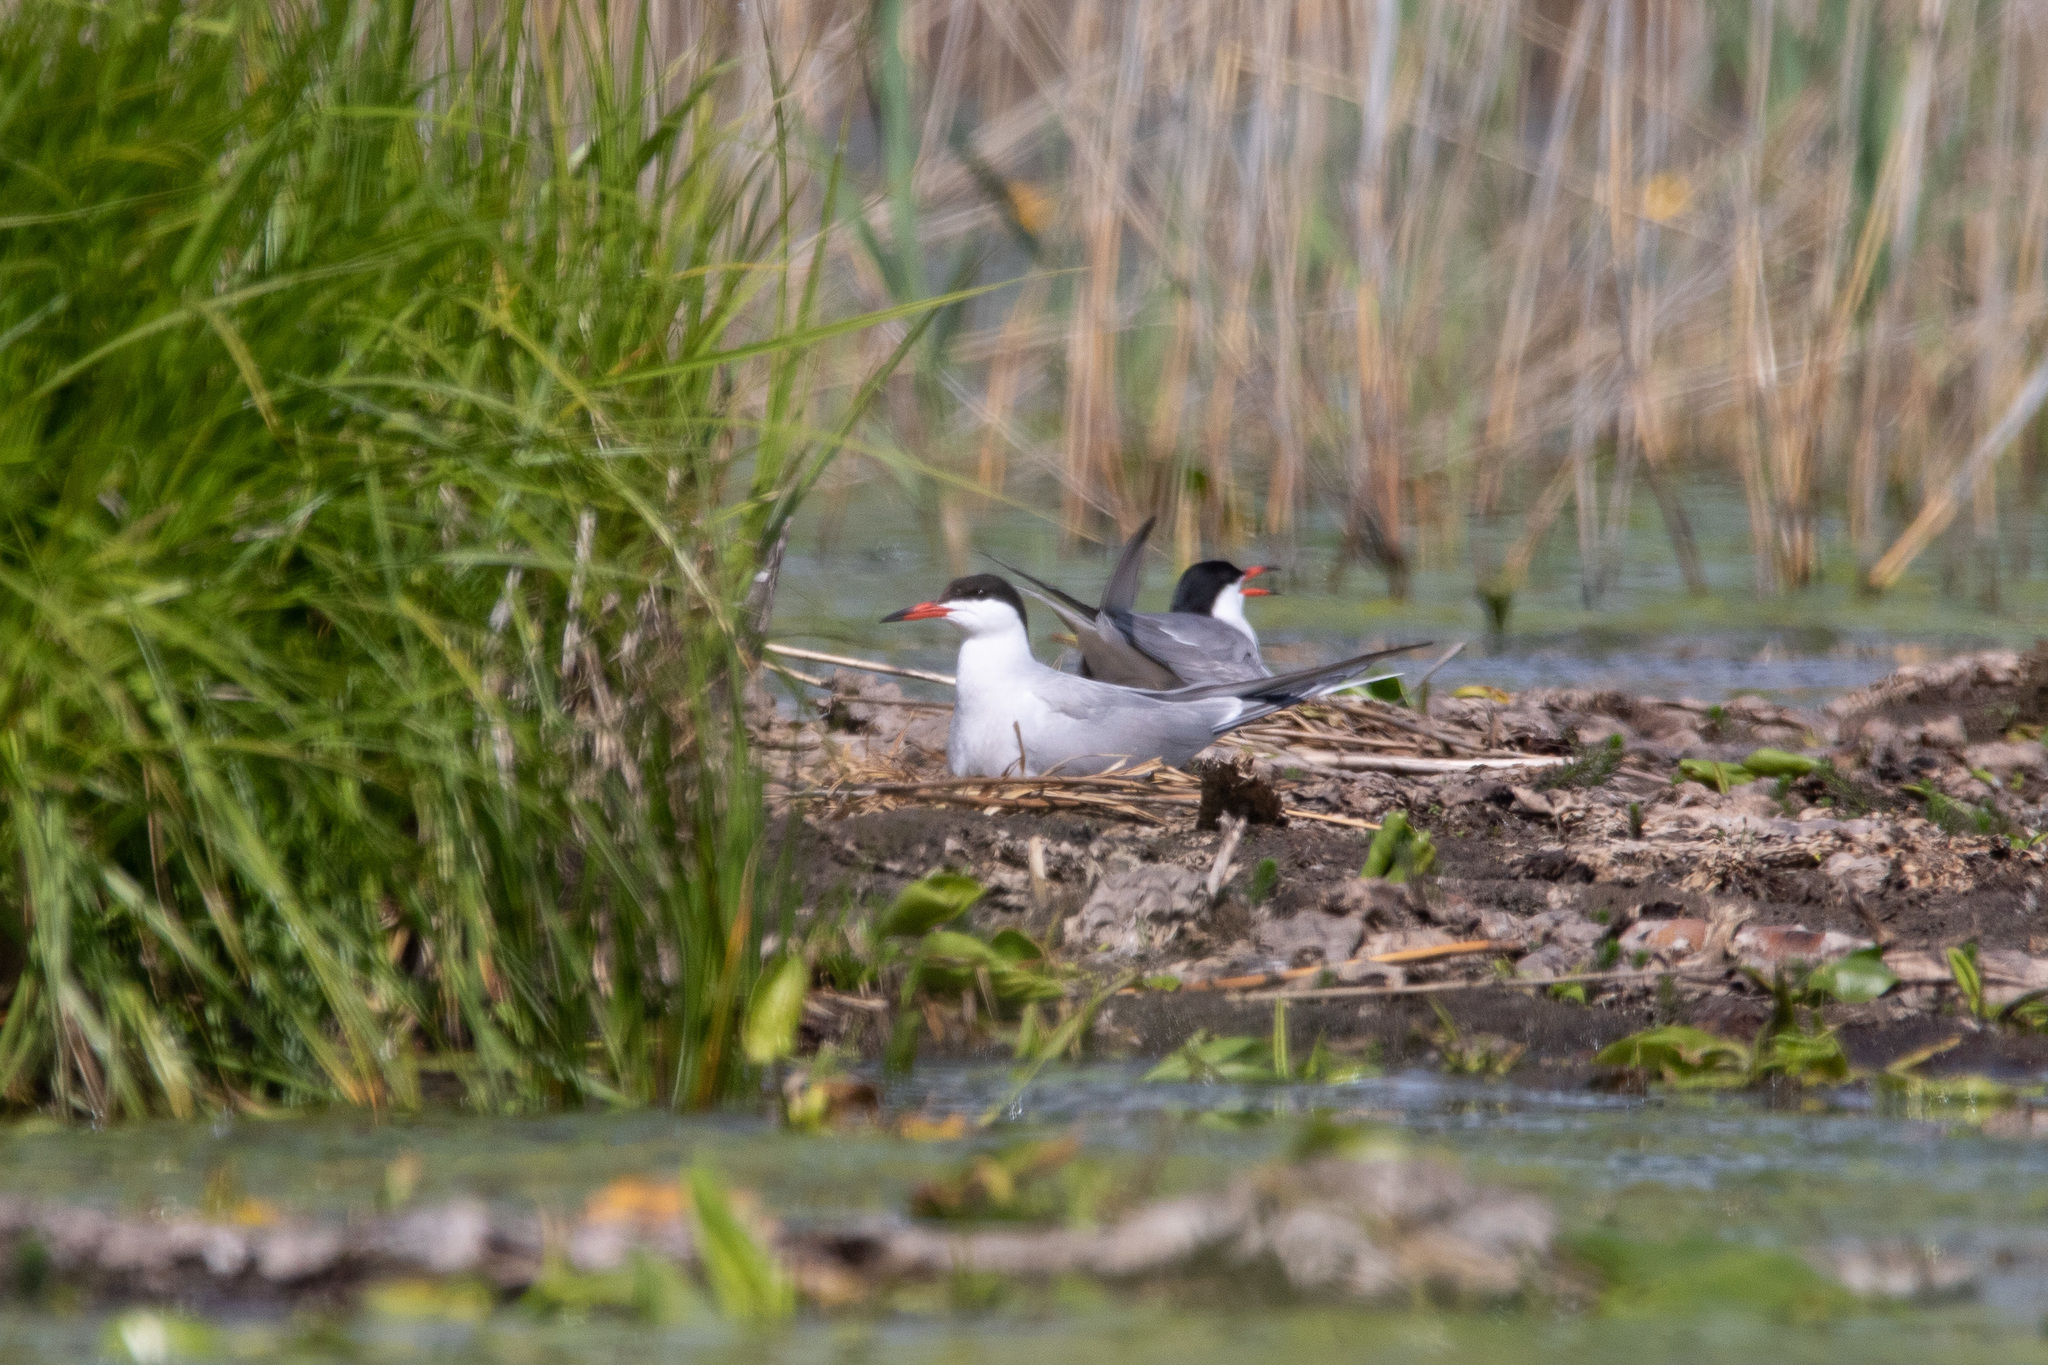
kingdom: Animalia
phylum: Chordata
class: Aves
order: Charadriiformes
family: Laridae
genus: Sterna
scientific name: Sterna hirundo
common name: Common tern
